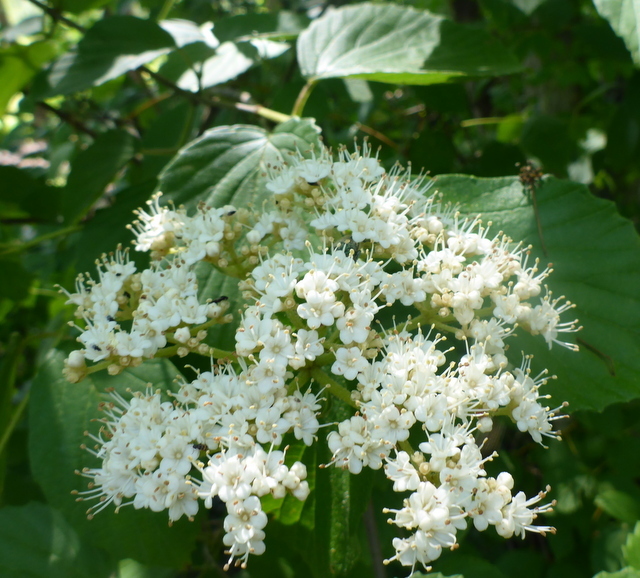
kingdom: Plantae
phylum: Tracheophyta
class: Magnoliopsida
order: Dipsacales
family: Viburnaceae
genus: Viburnum
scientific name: Viburnum scabrellum
